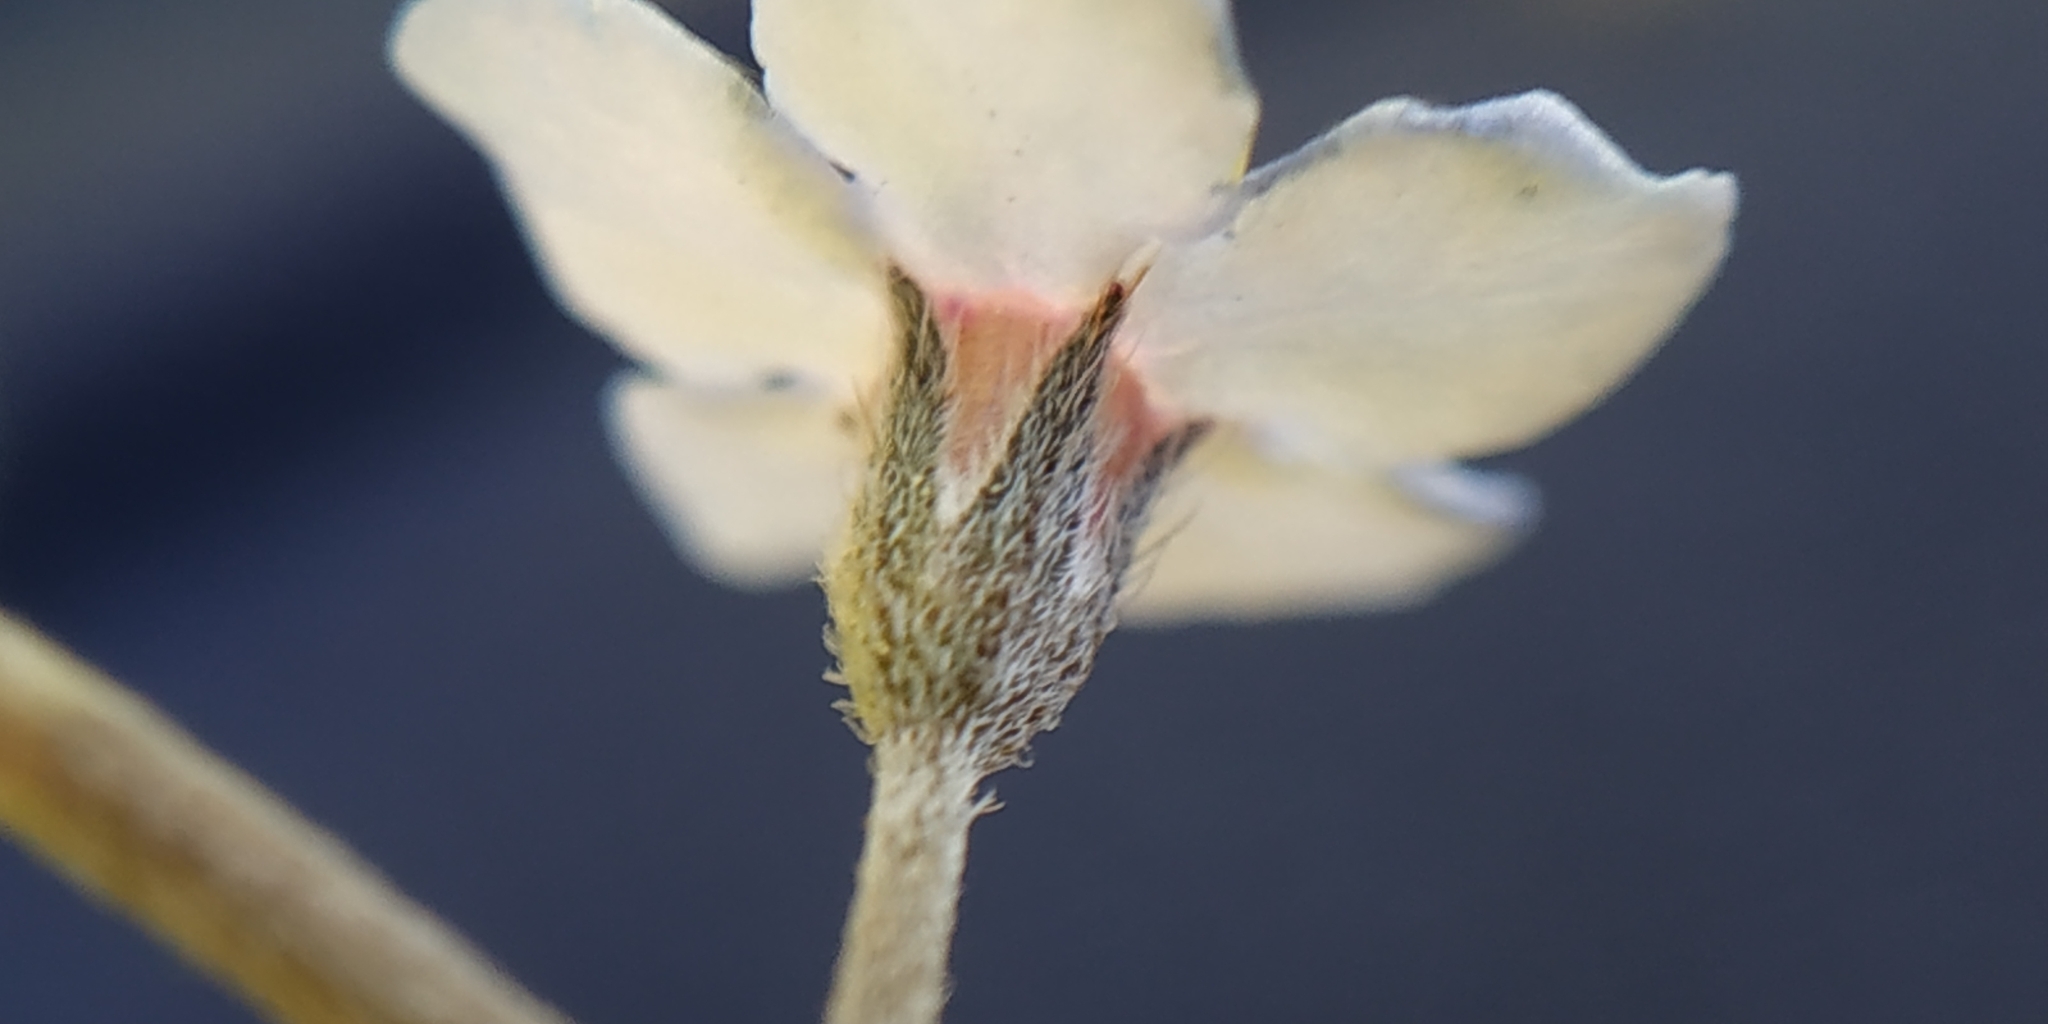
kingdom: Plantae
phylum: Tracheophyta
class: Magnoliopsida
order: Boraginales
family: Boraginaceae
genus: Myosotis
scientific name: Myosotis arvensis
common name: Field forget-me-not
